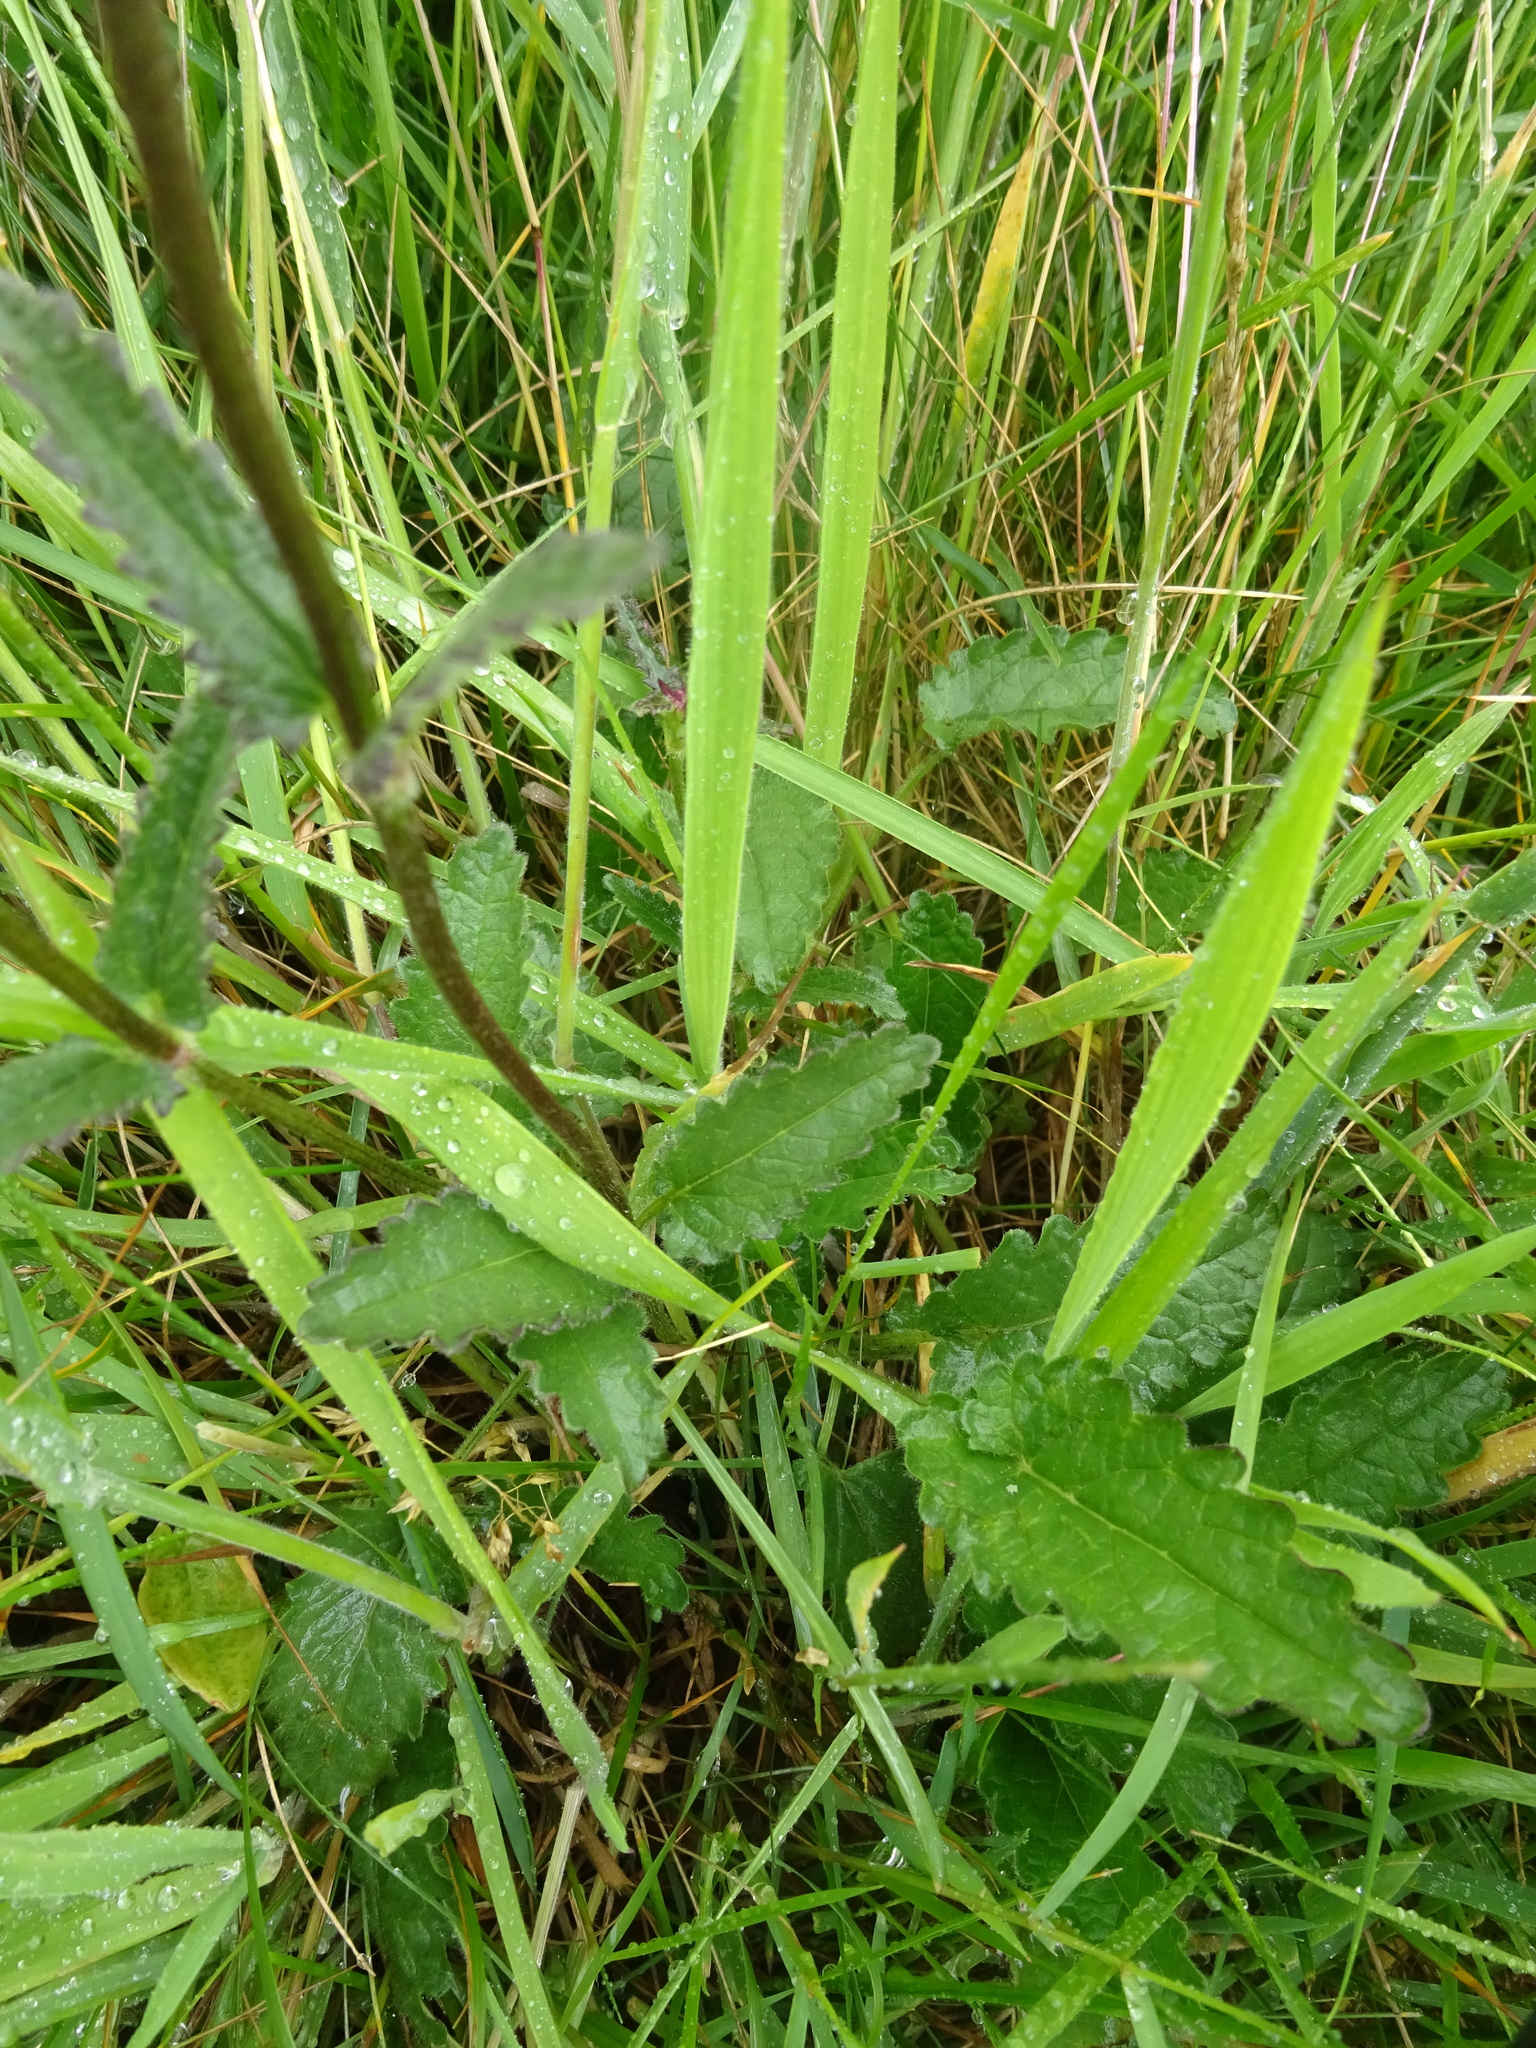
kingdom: Plantae
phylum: Tracheophyta
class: Magnoliopsida
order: Lamiales
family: Lamiaceae
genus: Betonica
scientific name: Betonica officinalis
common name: Bishop's-wort
